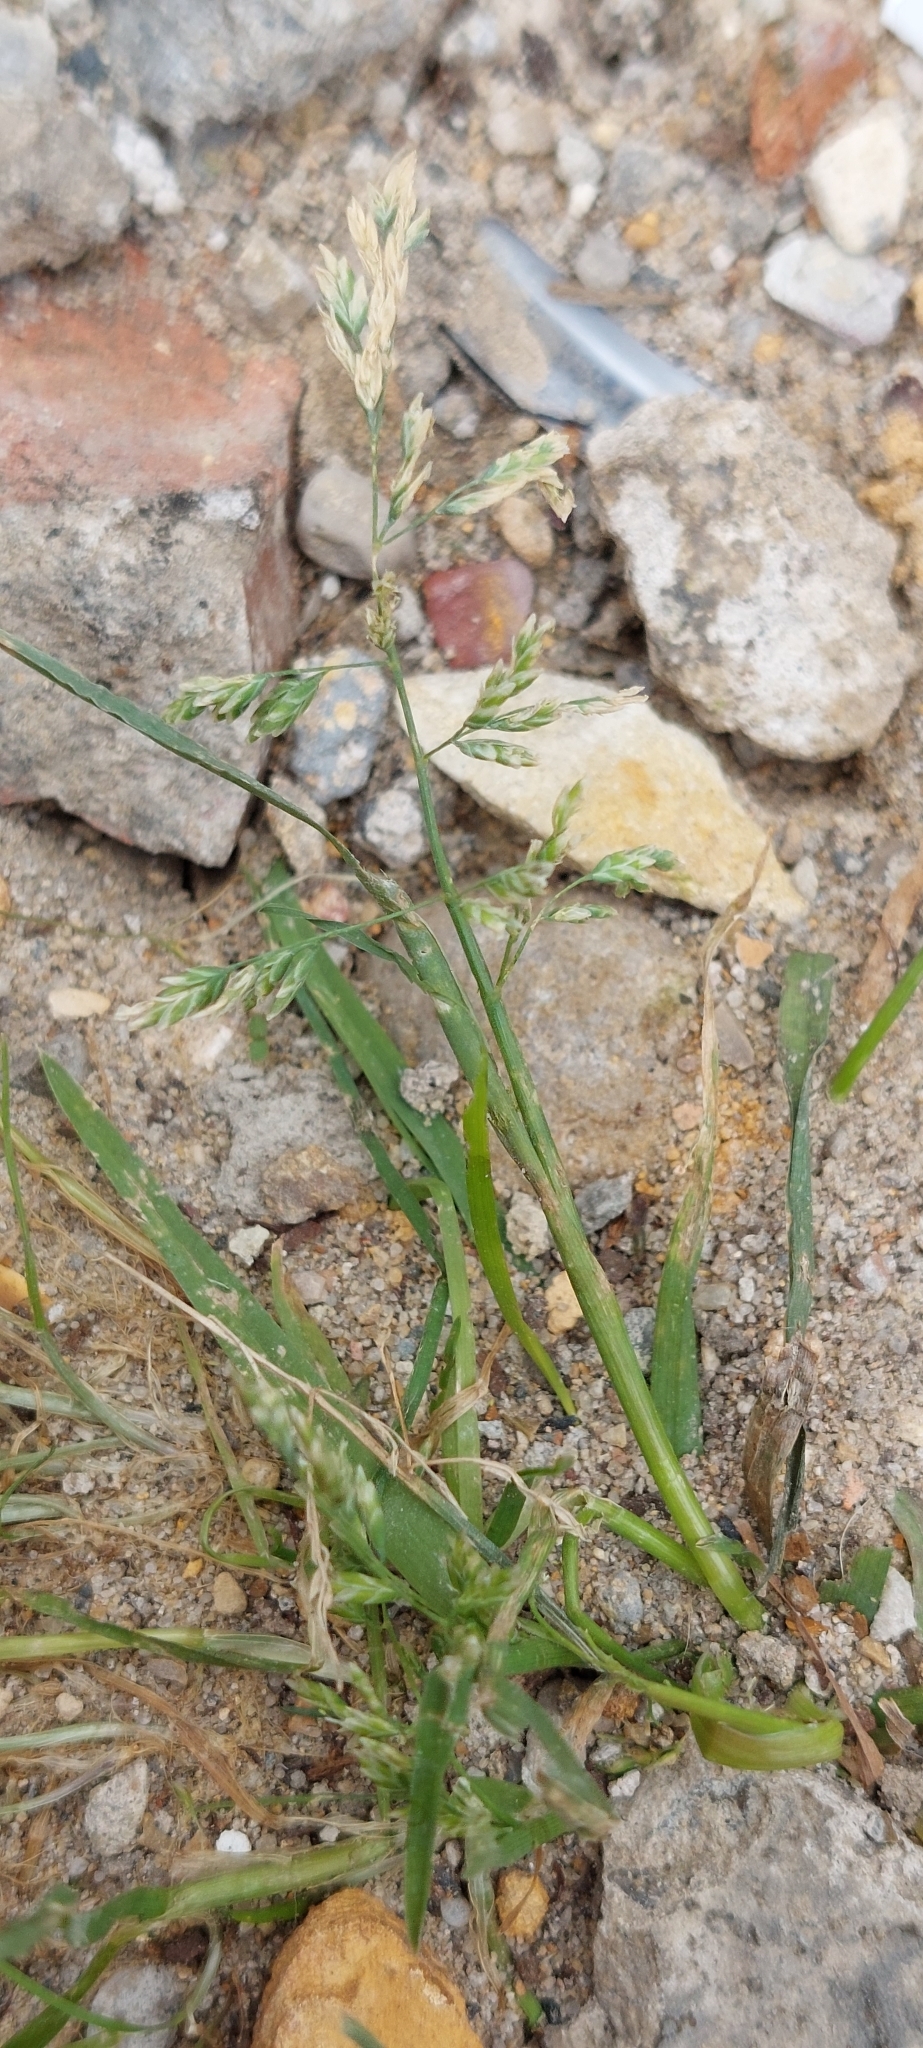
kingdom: Plantae
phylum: Tracheophyta
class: Liliopsida
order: Poales
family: Poaceae
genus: Poa
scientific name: Poa annua
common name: Annual bluegrass
